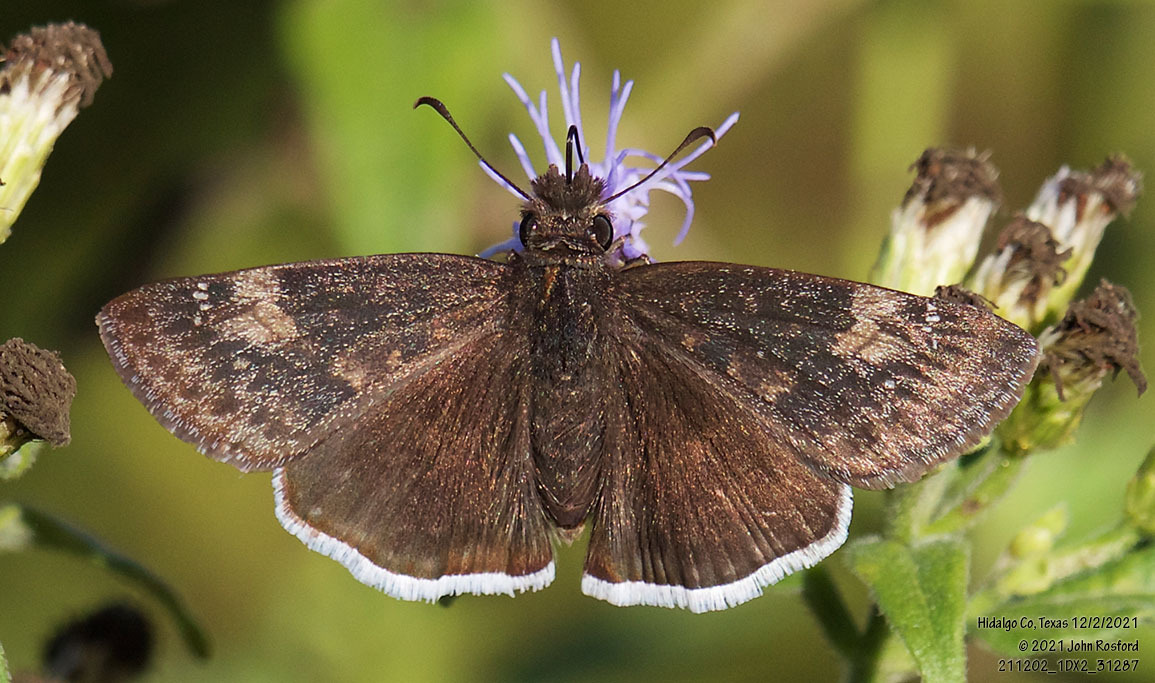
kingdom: Animalia
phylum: Arthropoda
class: Insecta
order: Lepidoptera
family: Hesperiidae
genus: Erynnis
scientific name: Erynnis funeralis
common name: Funereal duskywing
